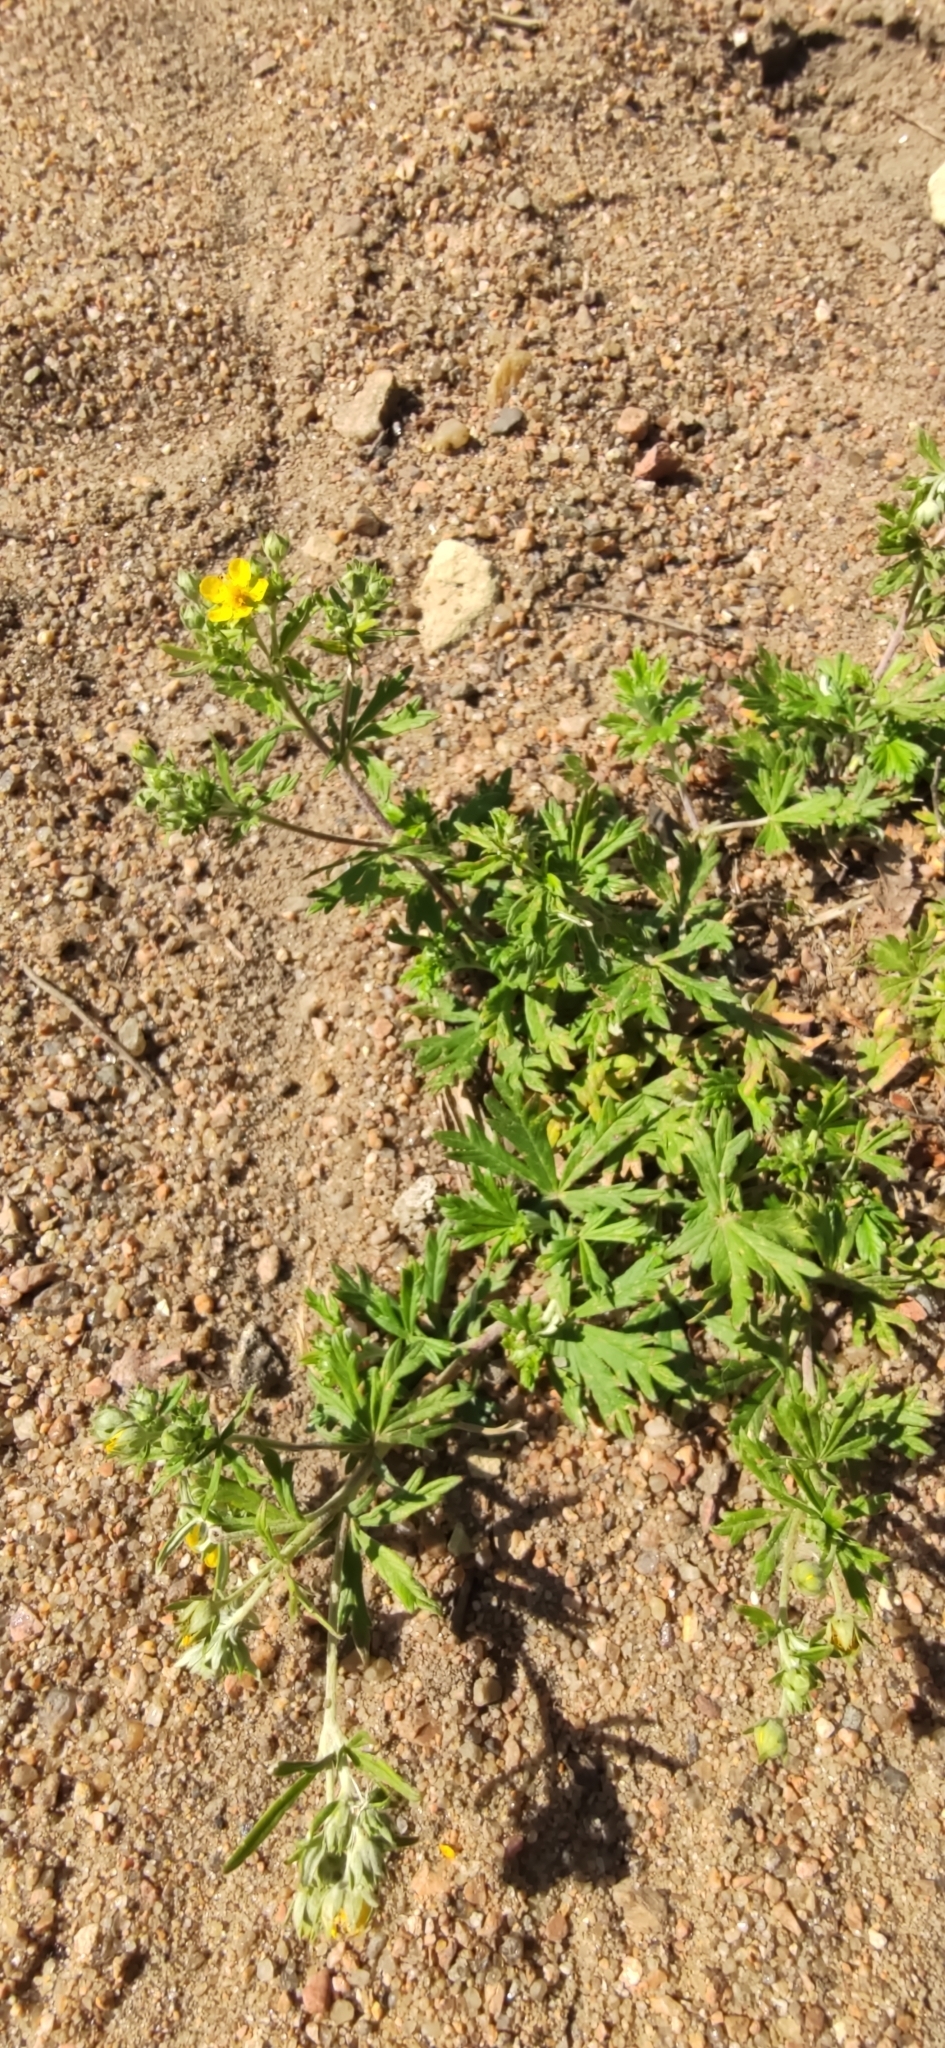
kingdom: Plantae
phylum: Tracheophyta
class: Magnoliopsida
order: Rosales
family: Rosaceae
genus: Potentilla
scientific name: Potentilla argentea
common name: Hoary cinquefoil
